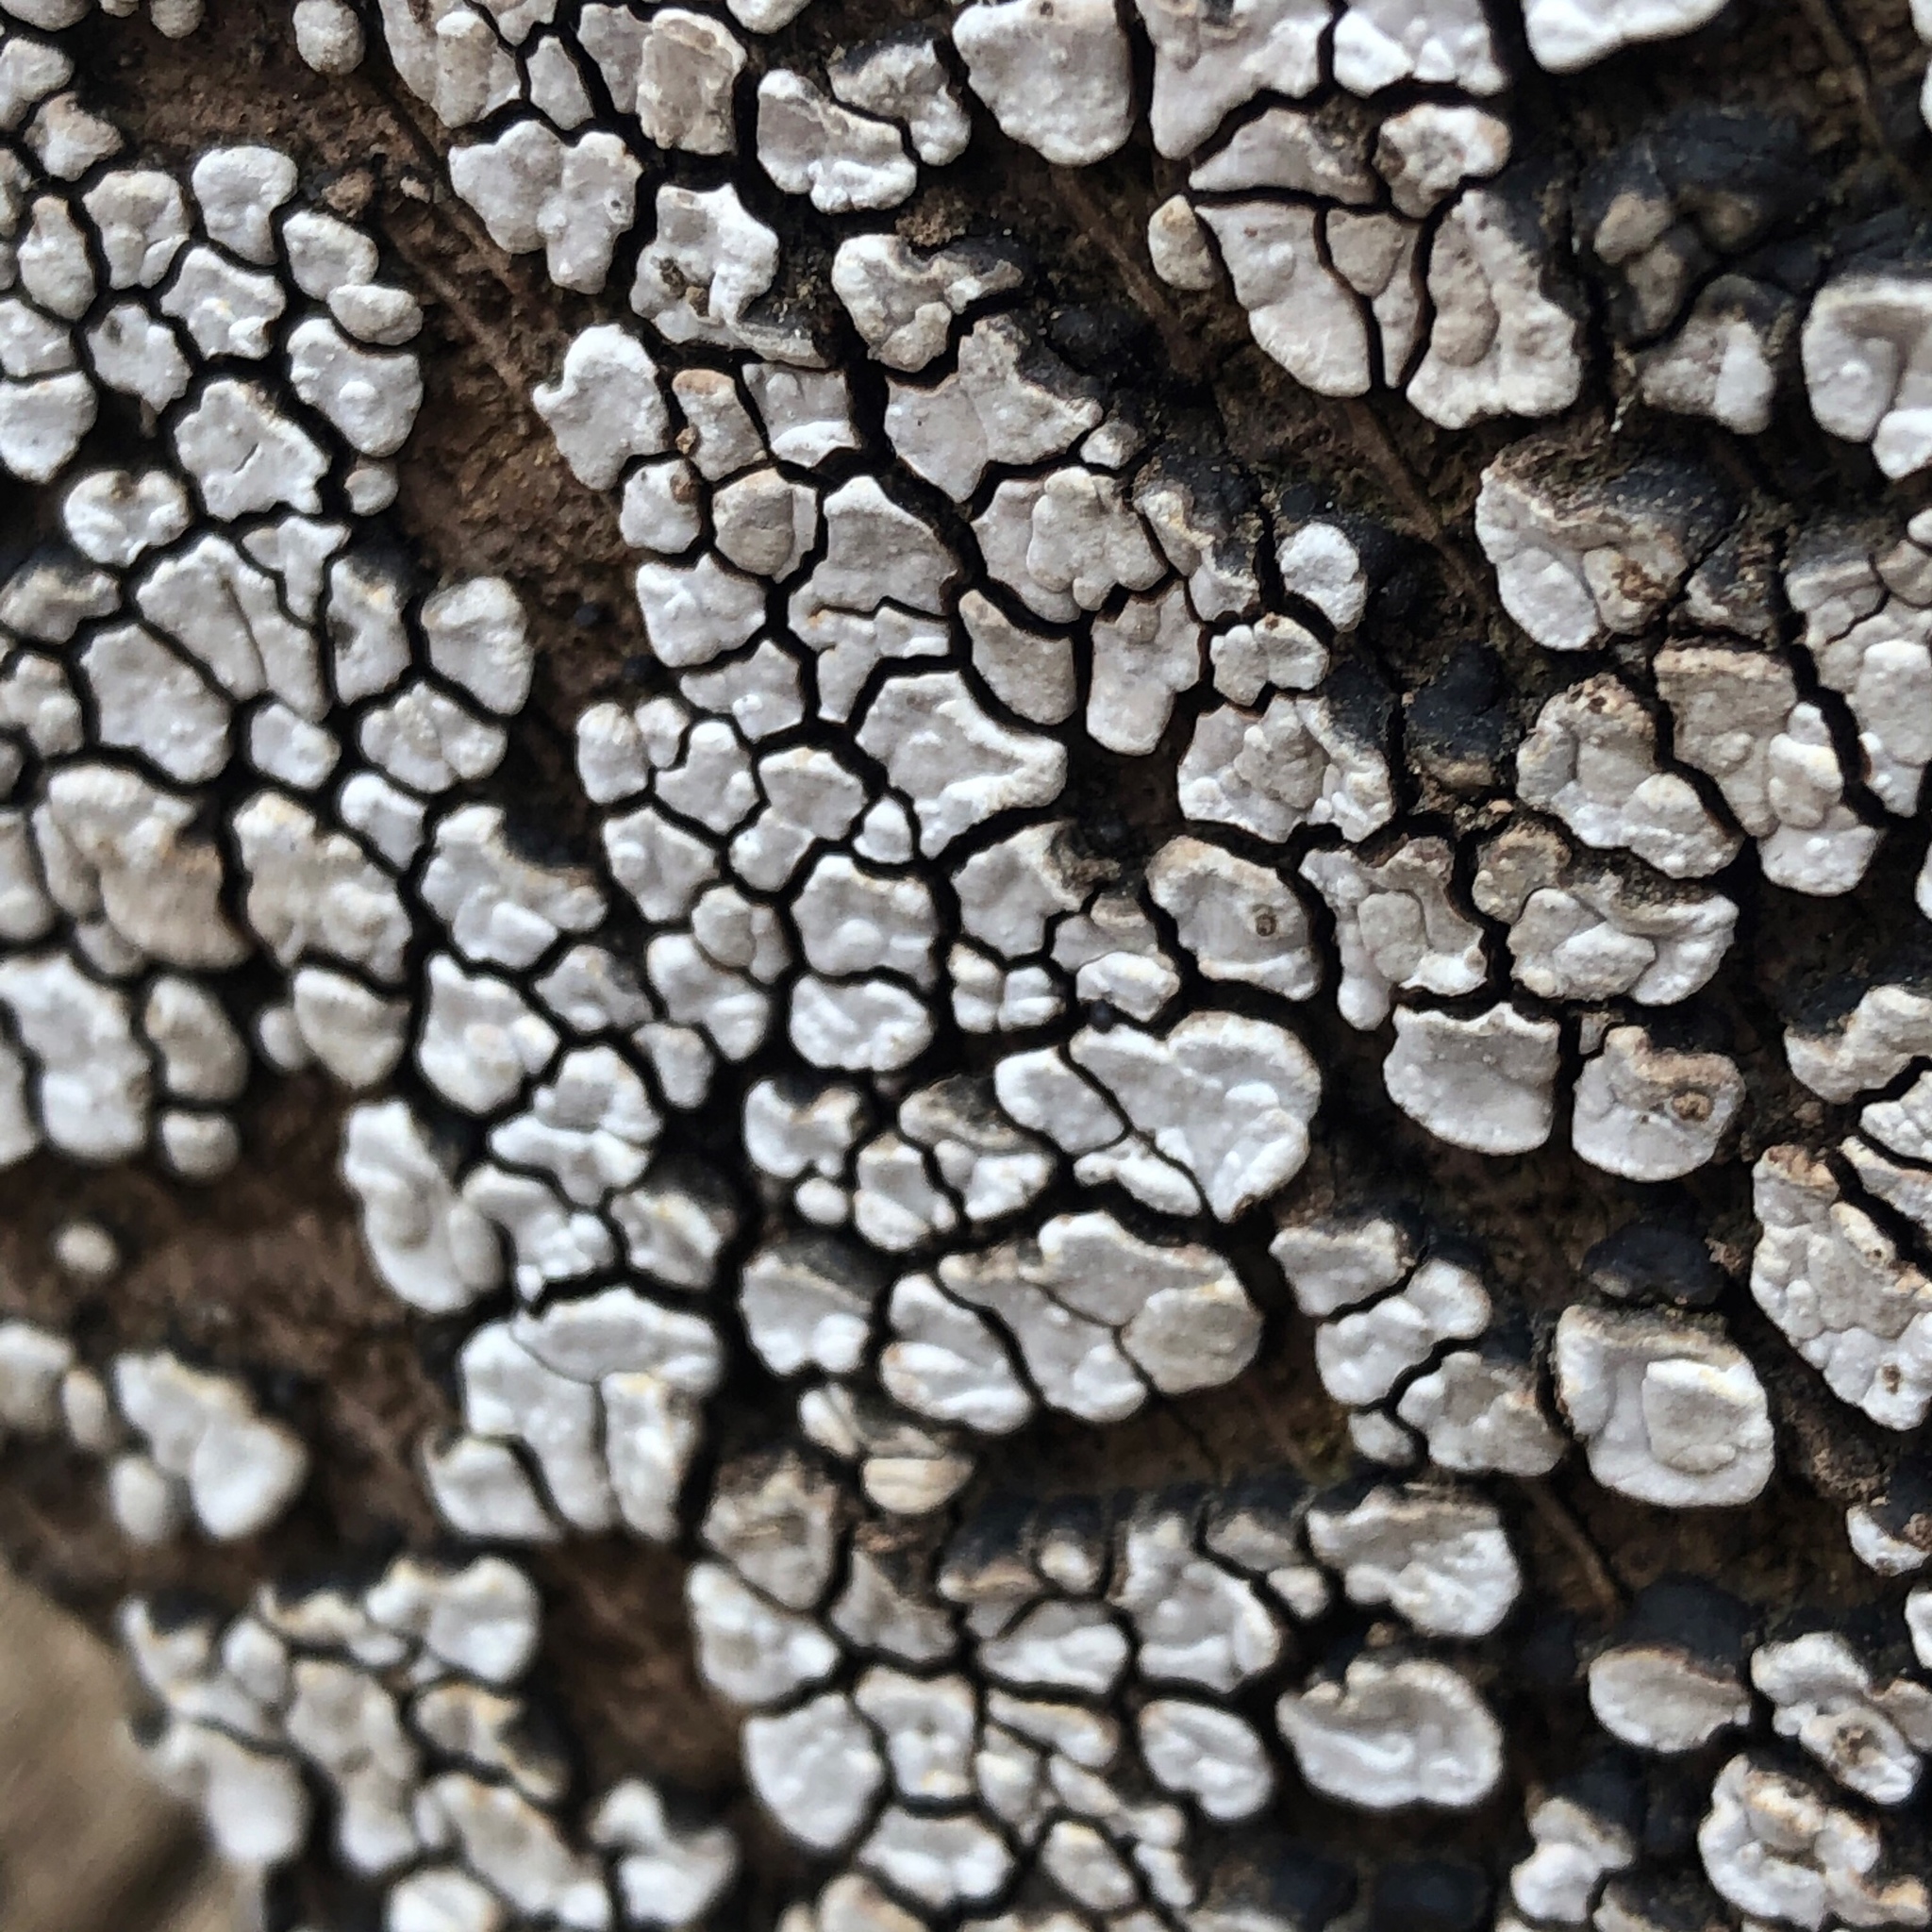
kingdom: Fungi
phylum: Basidiomycota
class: Agaricomycetes
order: Russulales
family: Stereaceae
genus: Xylobolus
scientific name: Xylobolus frustulatus
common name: Ceramic parchment
